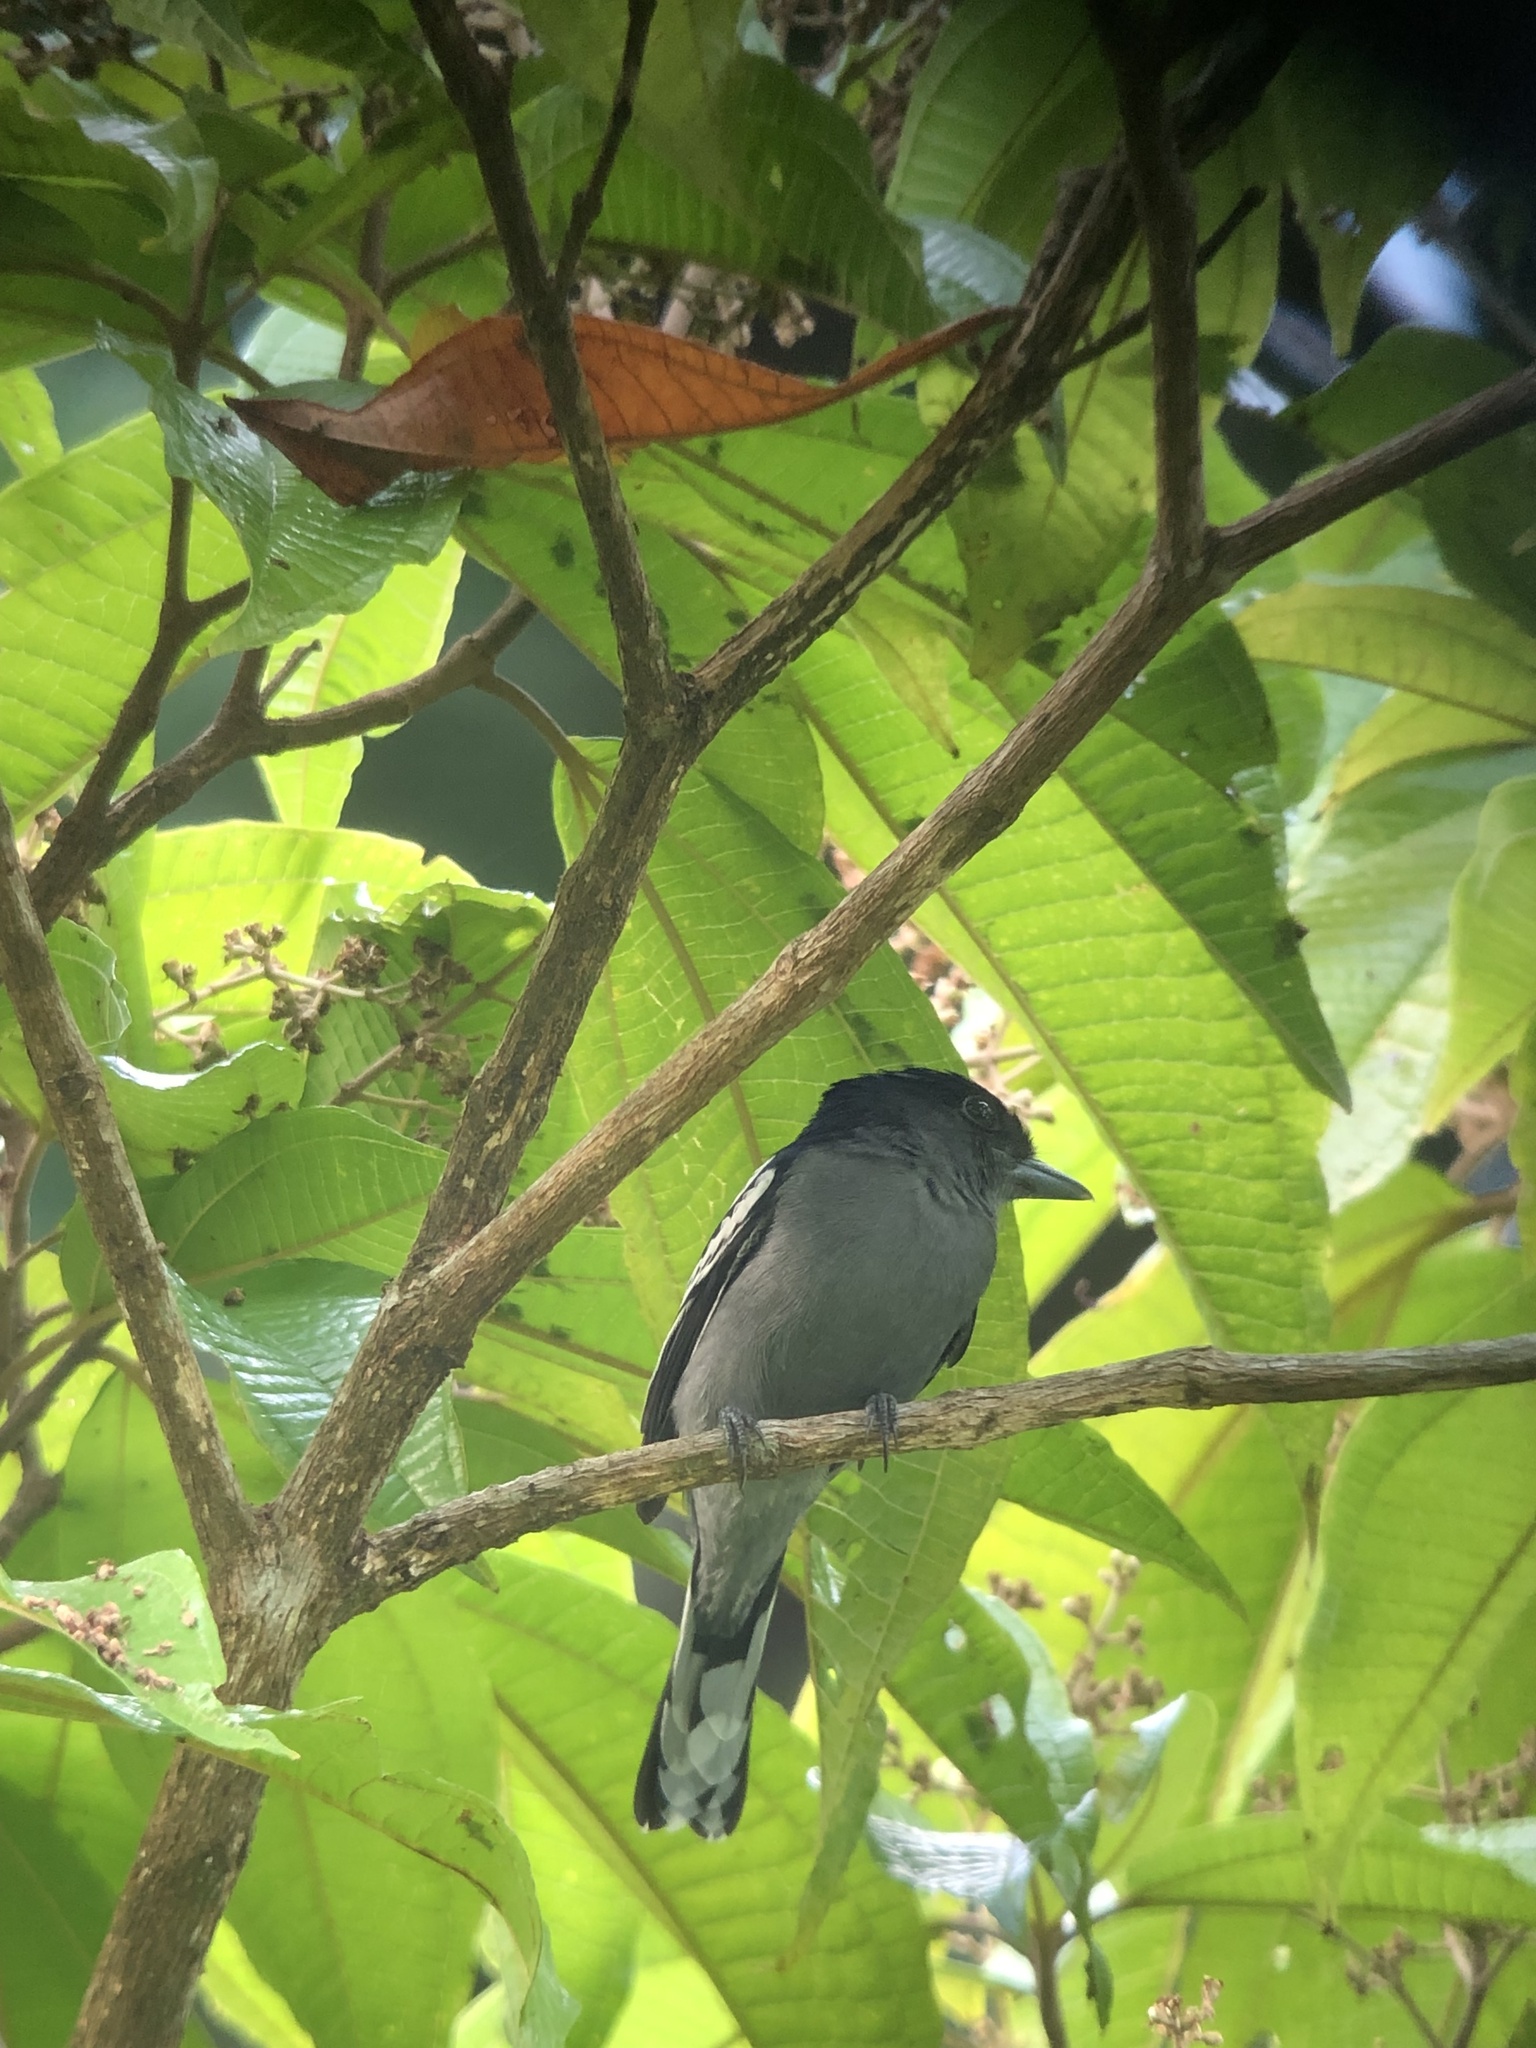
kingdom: Animalia
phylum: Chordata
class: Aves
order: Passeriformes
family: Cotingidae
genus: Pachyramphus
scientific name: Pachyramphus polychopterus
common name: White-winged becard
